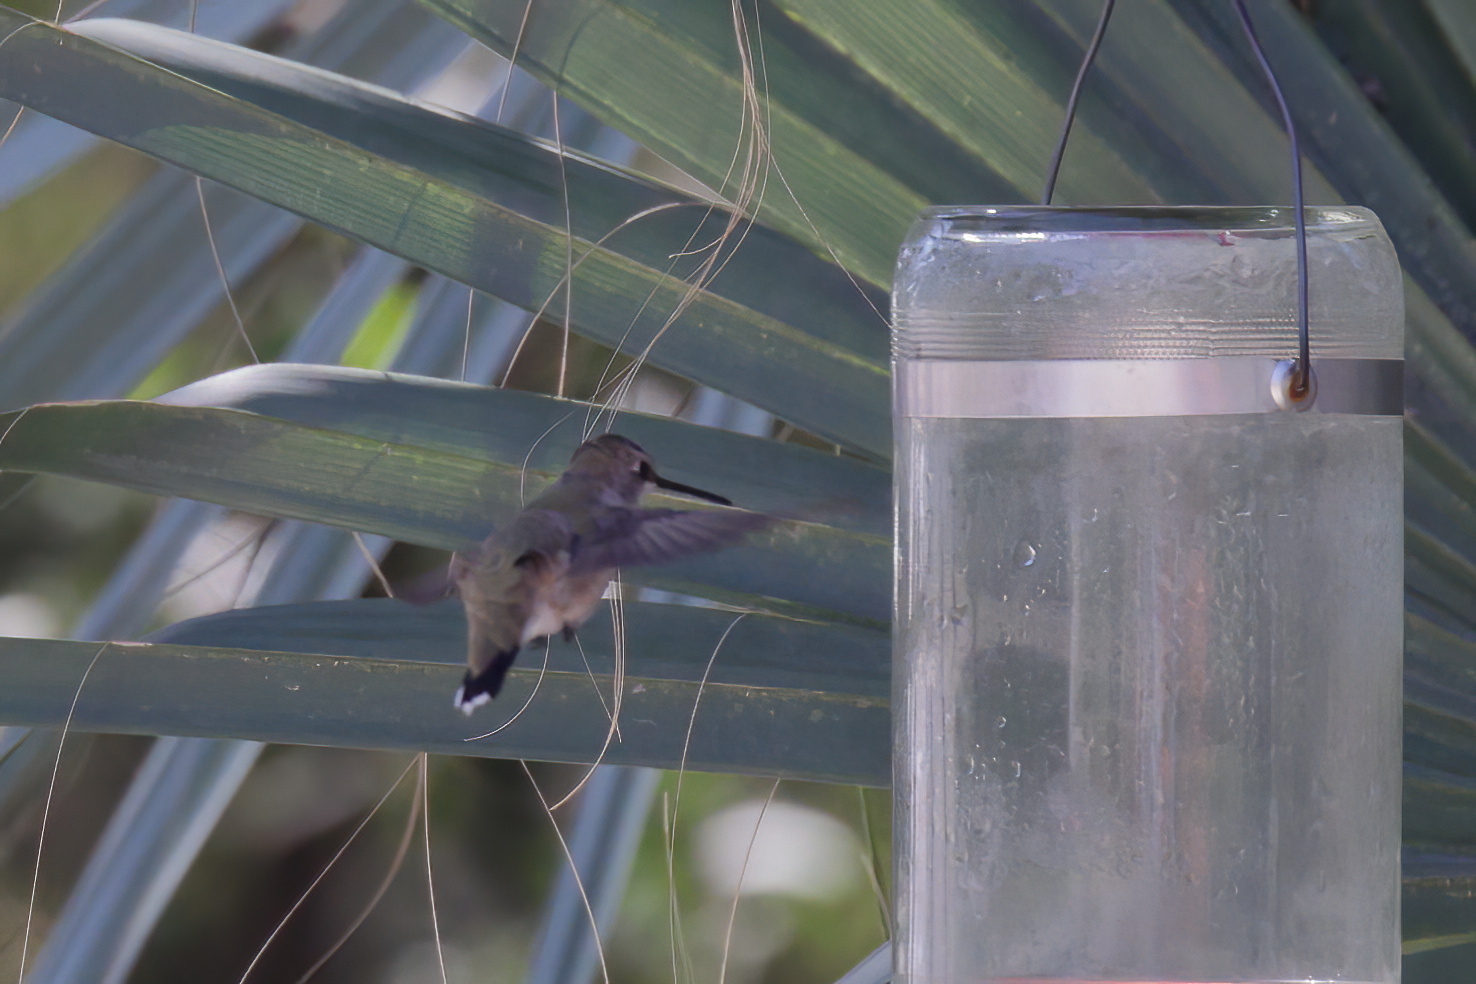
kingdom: Animalia
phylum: Chordata
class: Aves
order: Apodiformes
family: Trochilidae
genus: Archilochus
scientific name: Archilochus colubris
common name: Ruby-throated hummingbird
